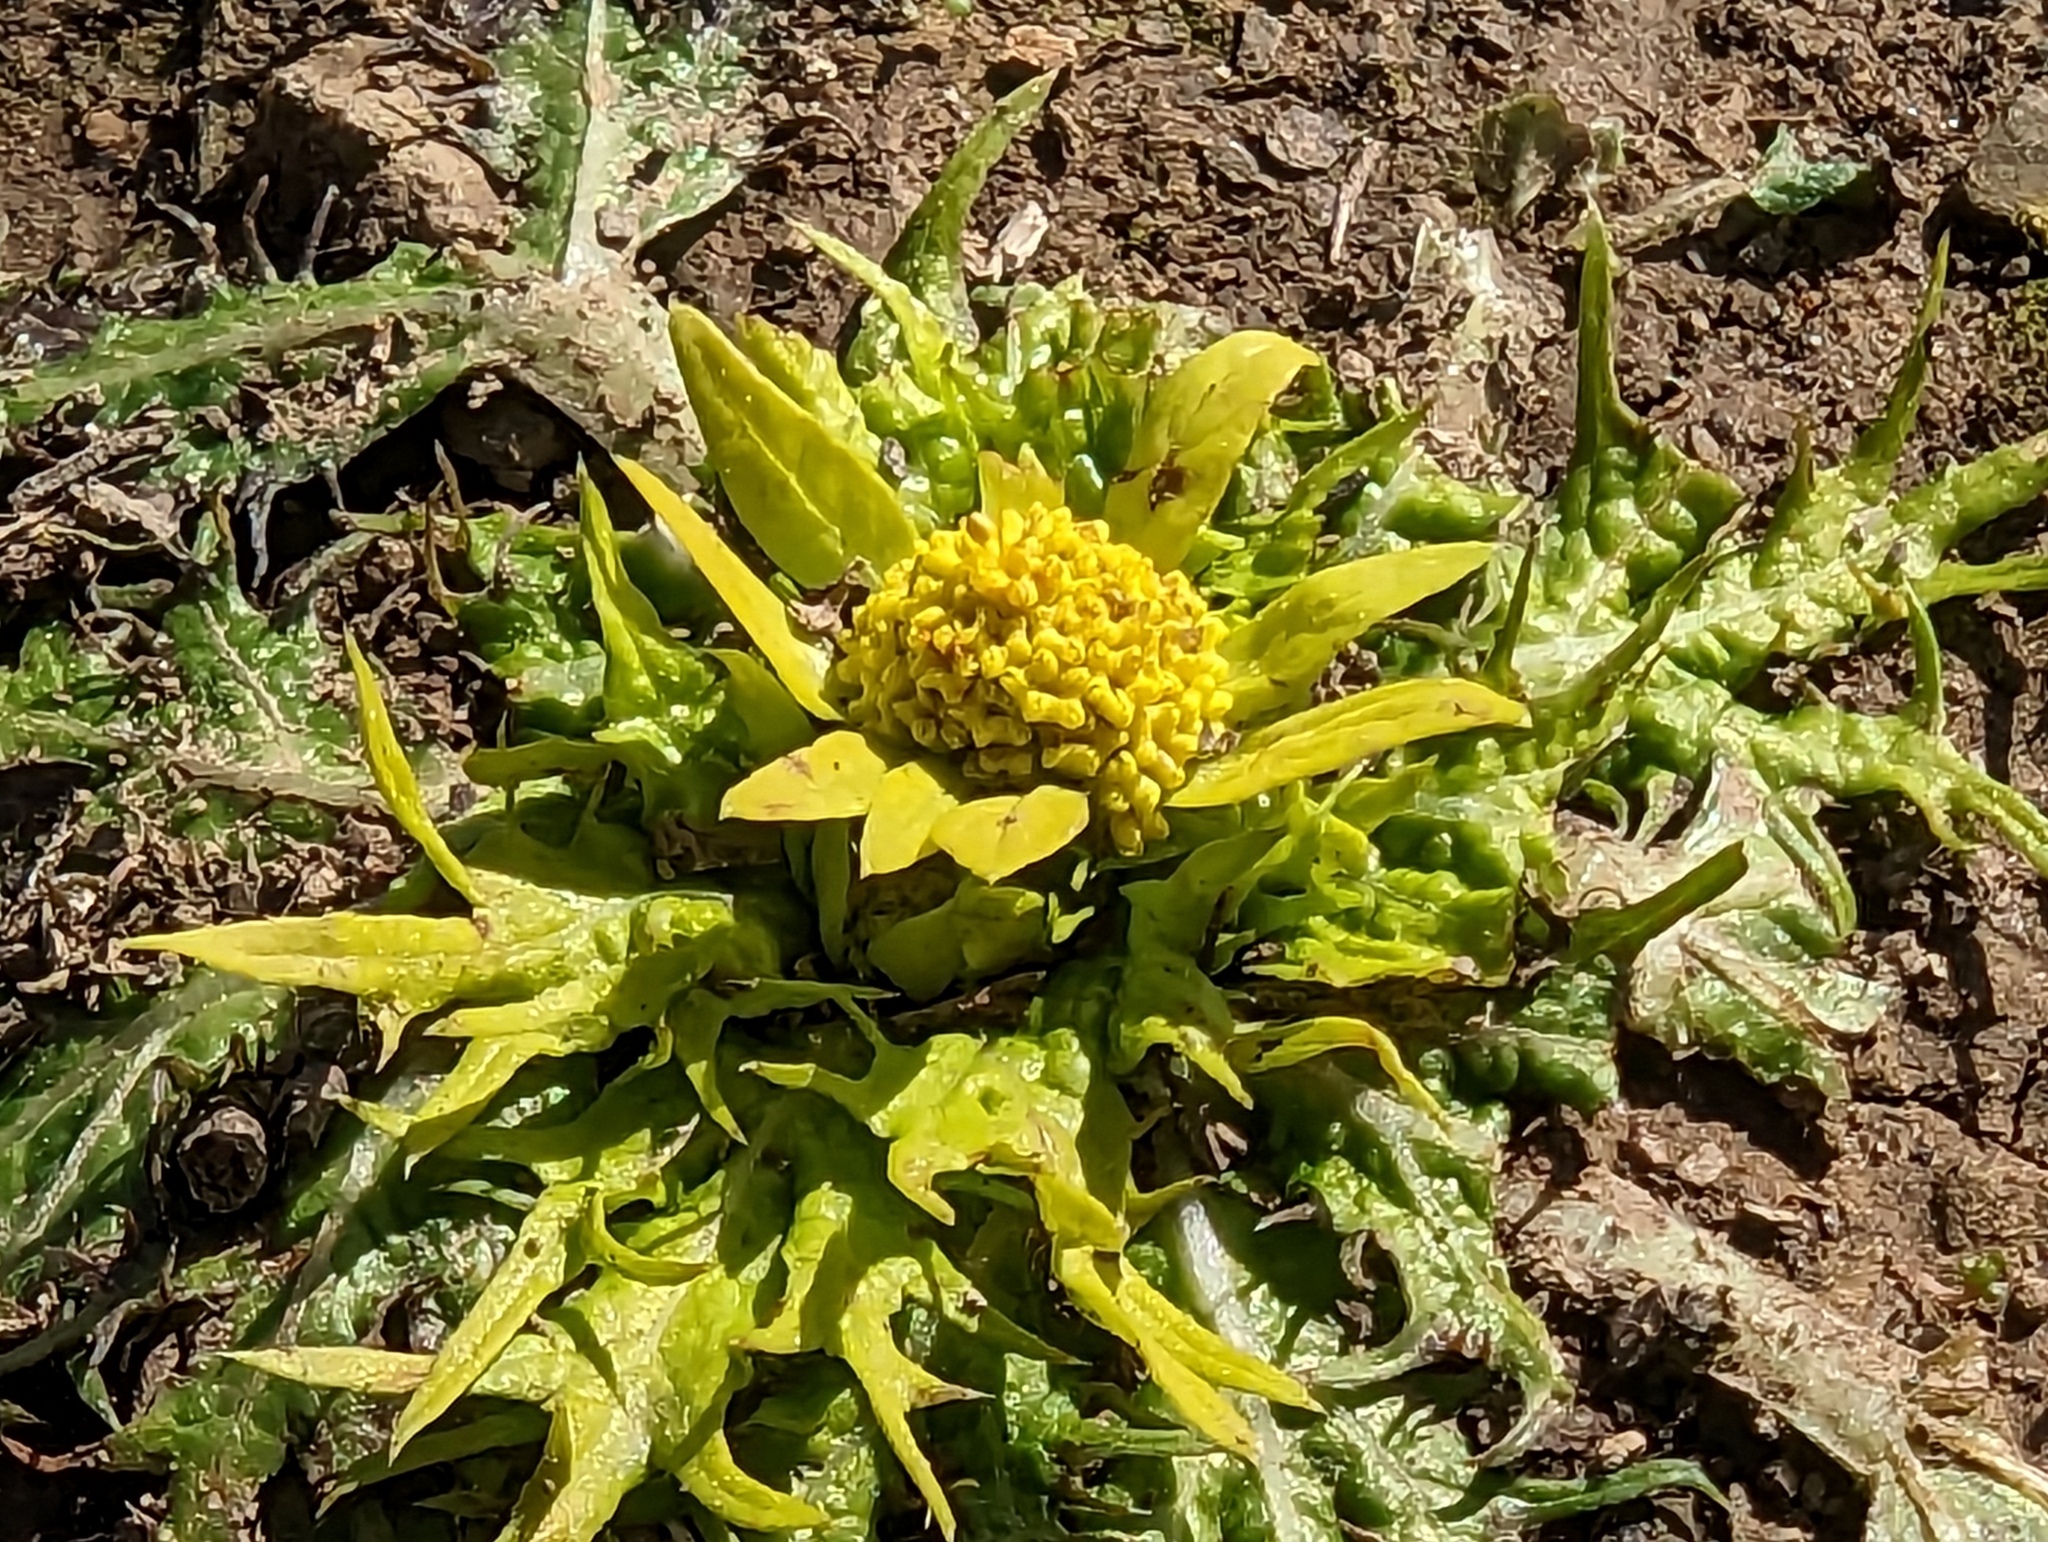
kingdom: Plantae
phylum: Tracheophyta
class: Magnoliopsida
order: Apiales
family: Apiaceae
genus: Sanicula
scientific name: Sanicula arctopoides
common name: Footsteps-of-spring
